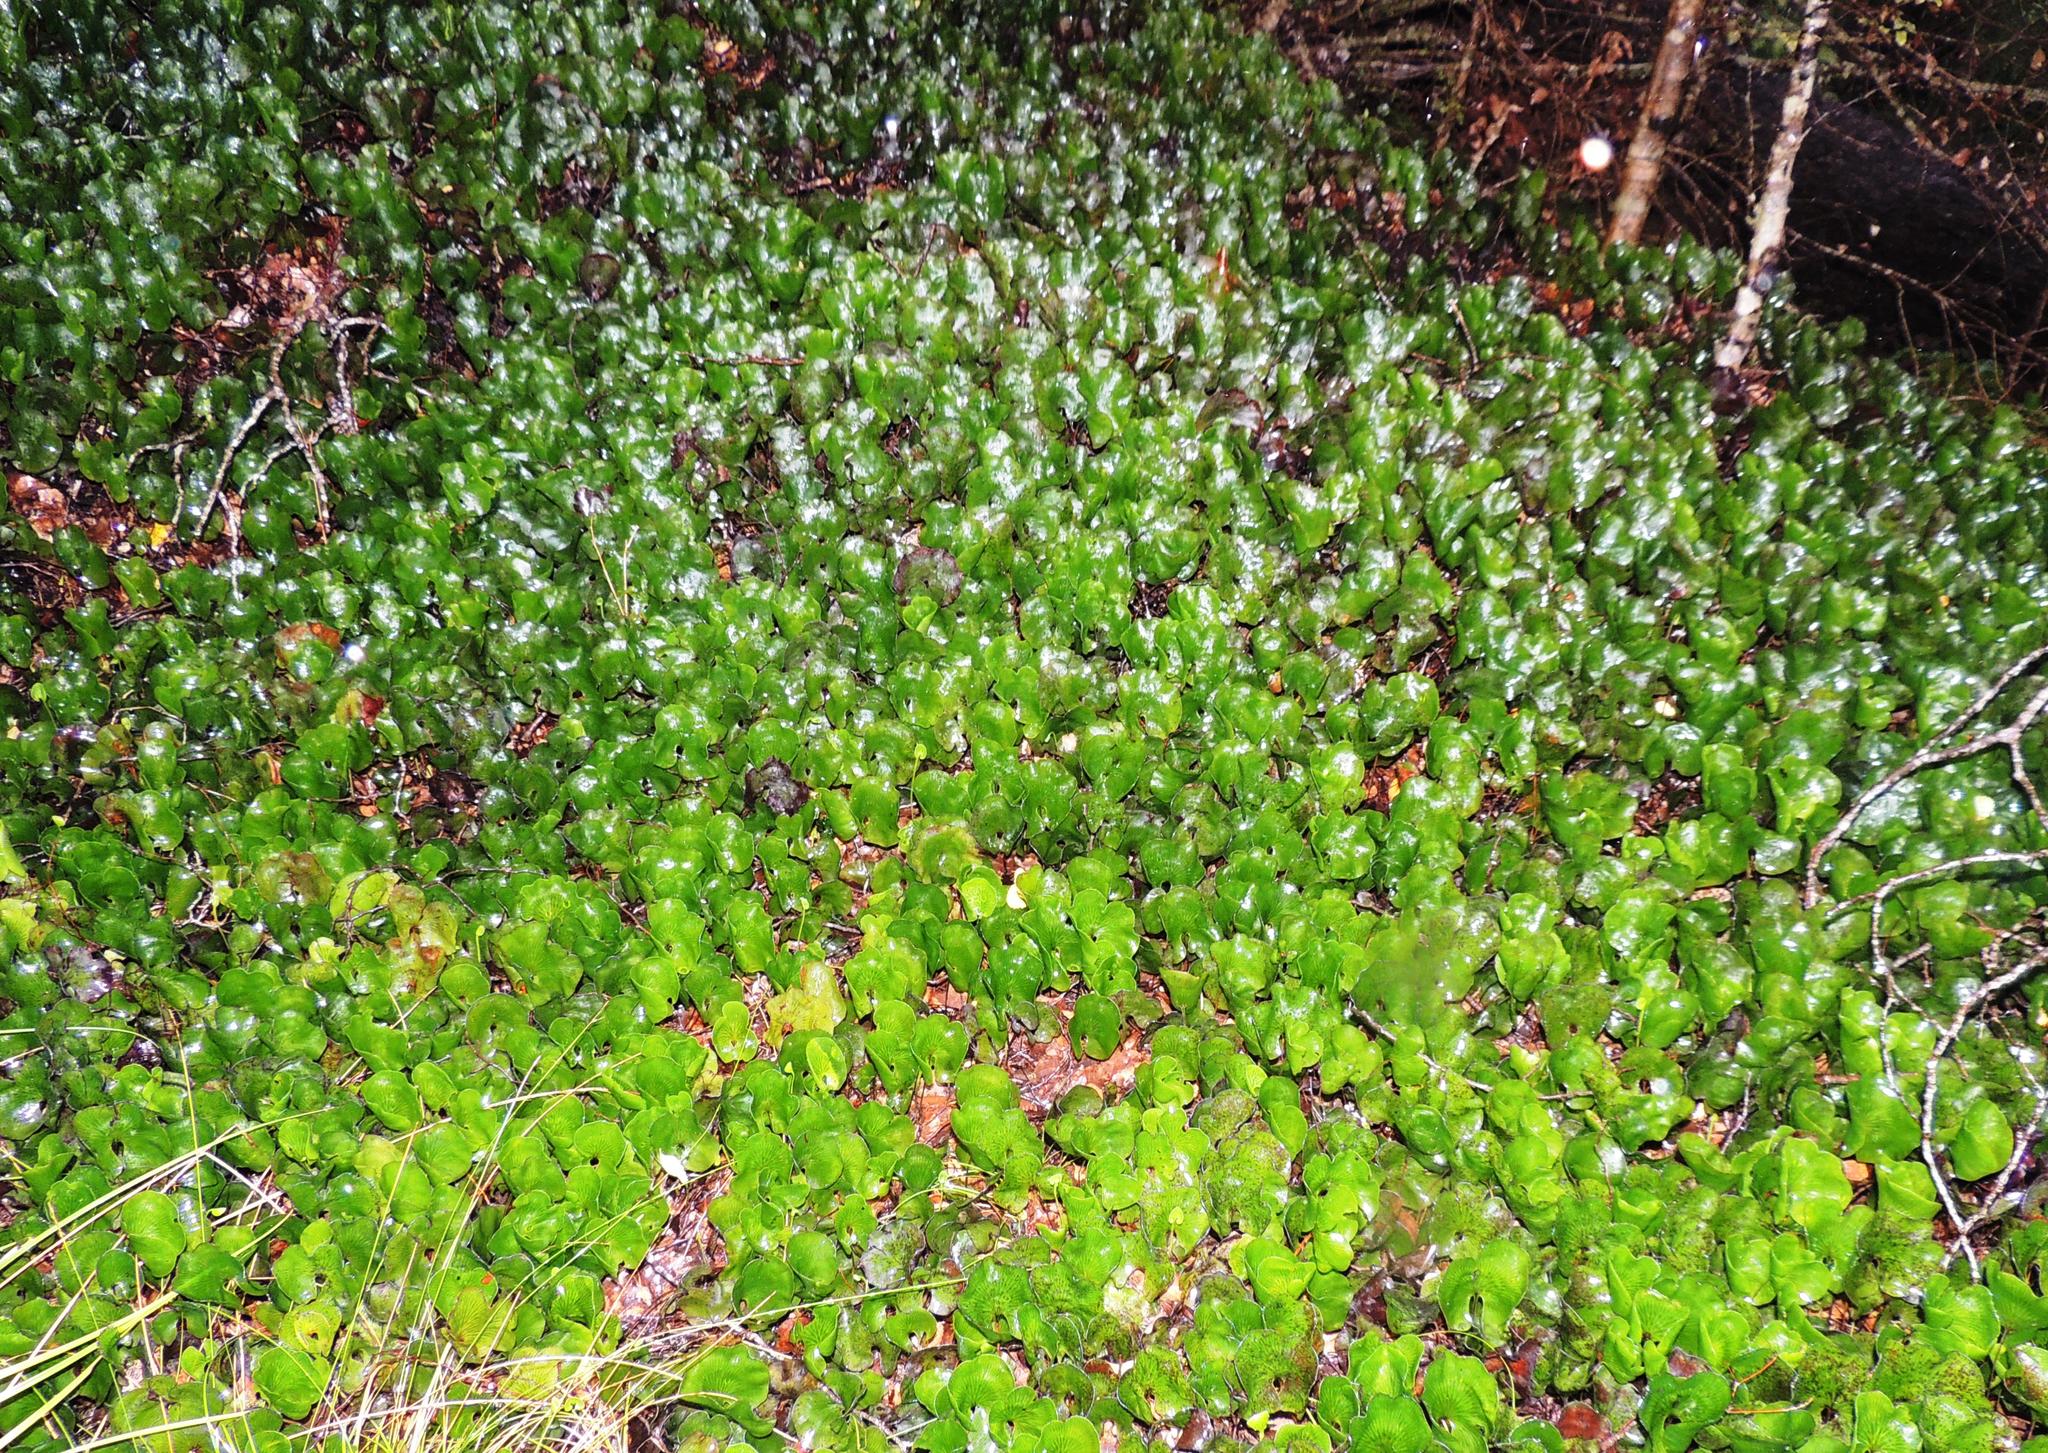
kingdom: Plantae
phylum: Tracheophyta
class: Polypodiopsida
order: Hymenophyllales
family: Hymenophyllaceae
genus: Hymenophyllum
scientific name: Hymenophyllum nephrophyllum
